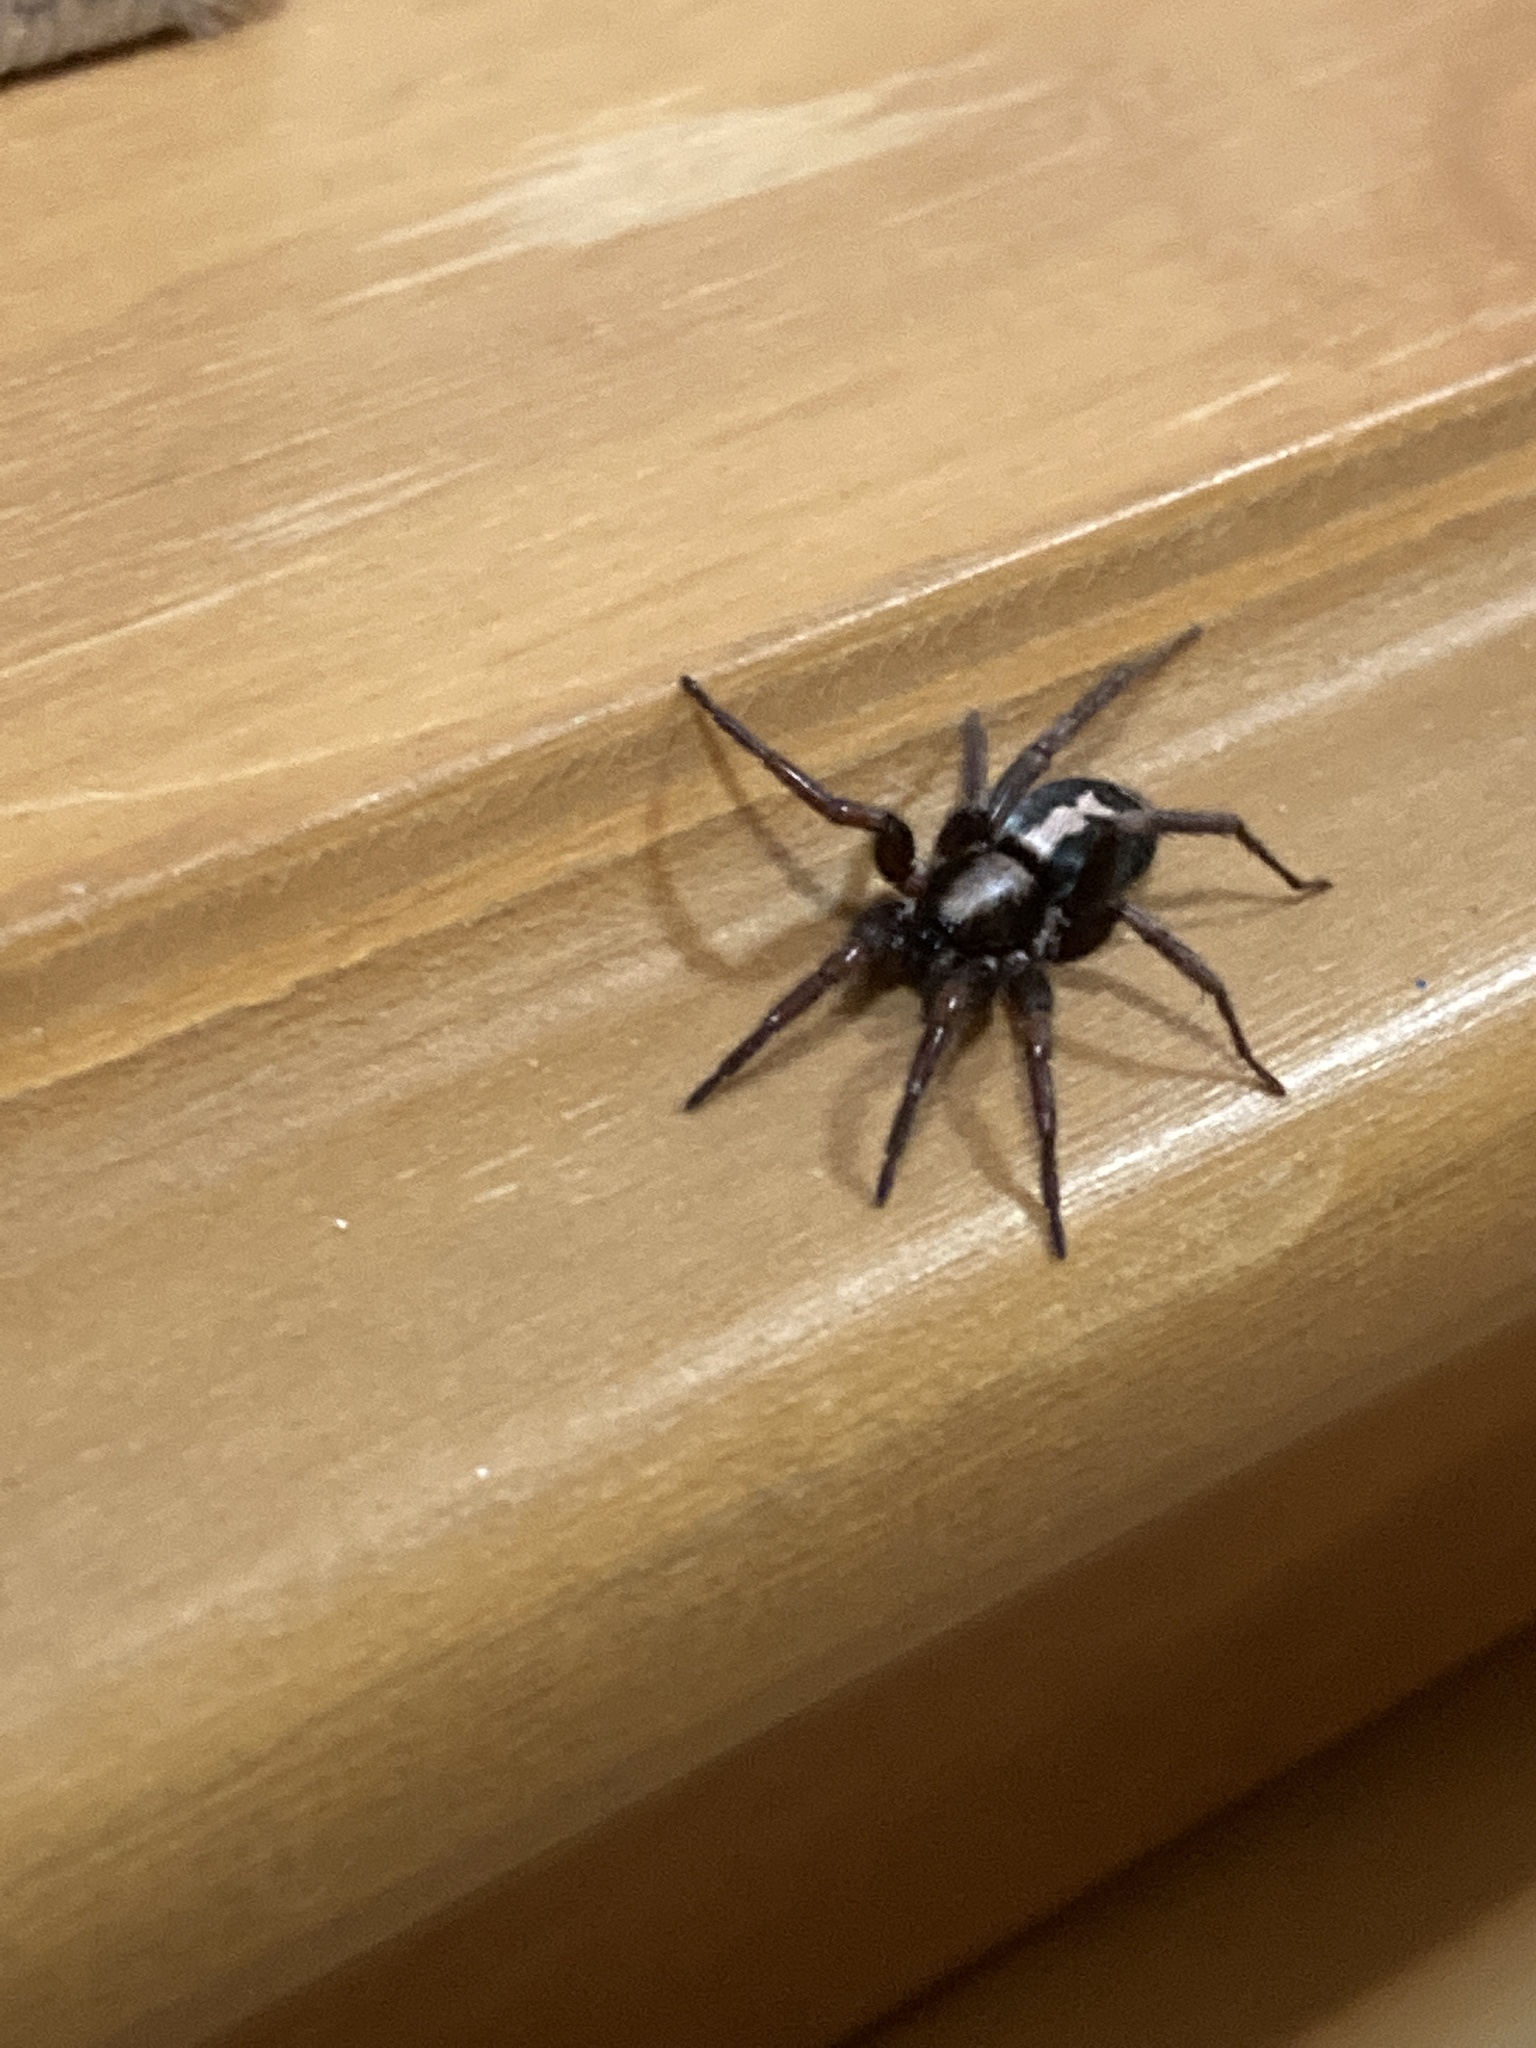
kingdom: Animalia
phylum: Arthropoda
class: Arachnida
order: Araneae
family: Gnaphosidae
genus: Herpyllus
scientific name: Herpyllus ecclesiasticus
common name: Eastern parson spider
